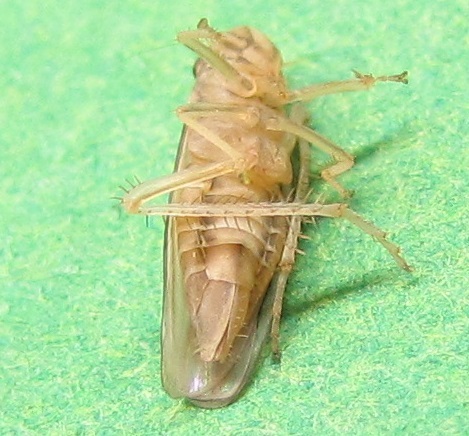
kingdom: Animalia
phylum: Arthropoda
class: Insecta
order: Hemiptera
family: Cicadellidae
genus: Provancherana
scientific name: Provancherana tripunctata
